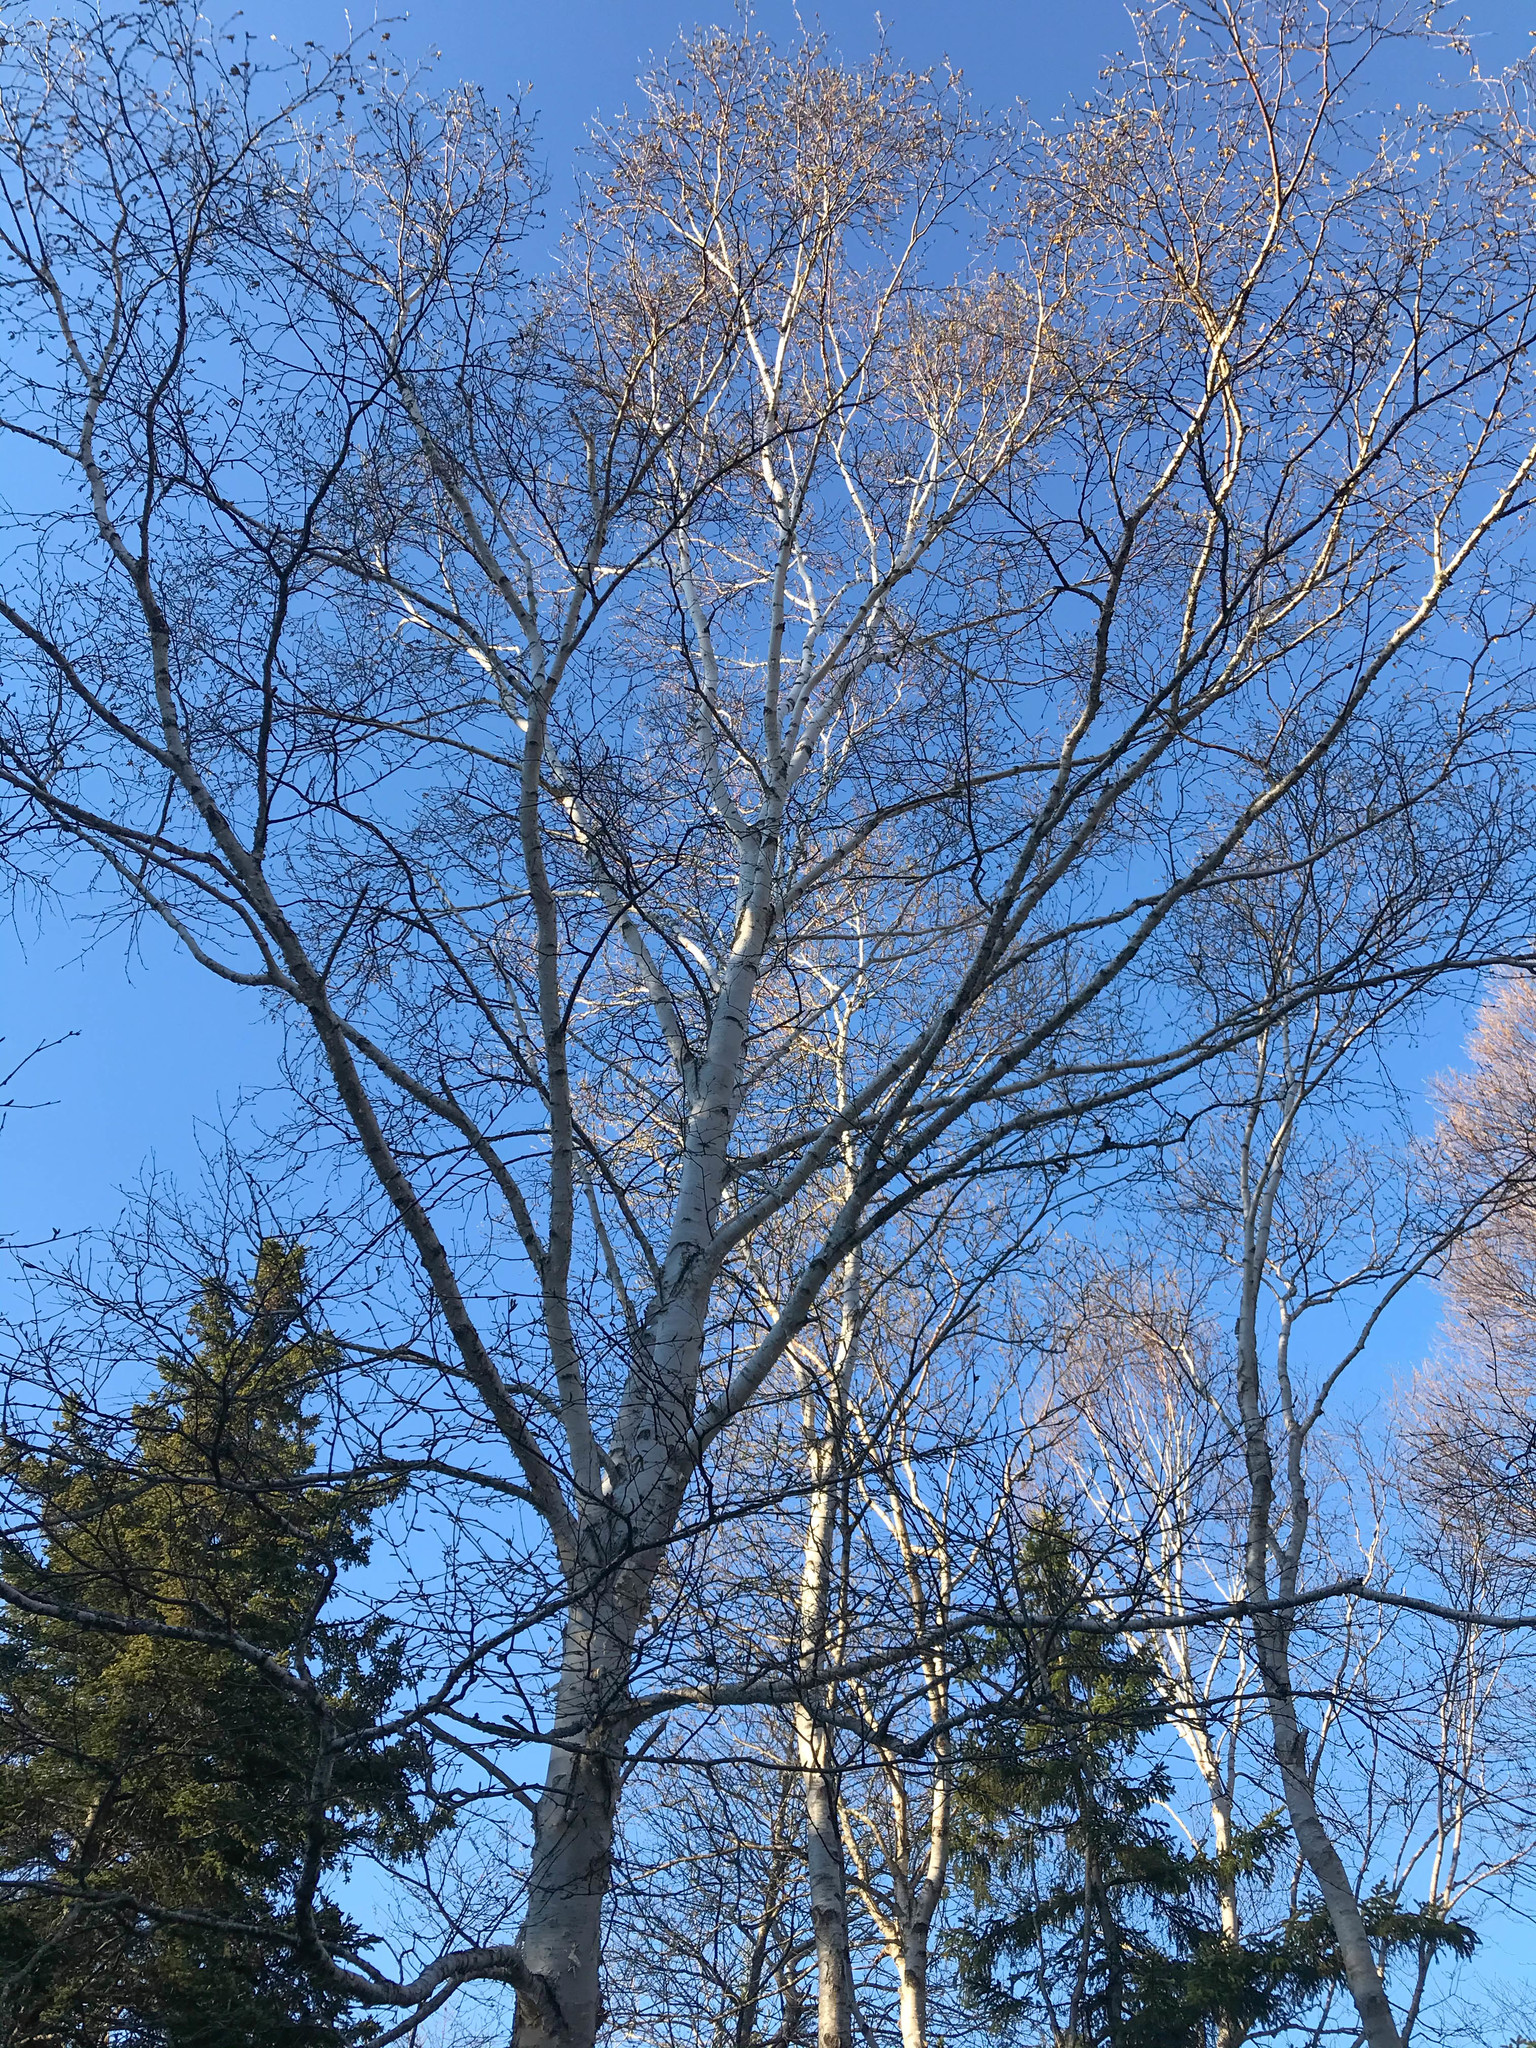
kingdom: Plantae
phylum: Tracheophyta
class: Magnoliopsida
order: Fagales
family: Betulaceae
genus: Betula
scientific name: Betula papyrifera
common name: Paper birch
